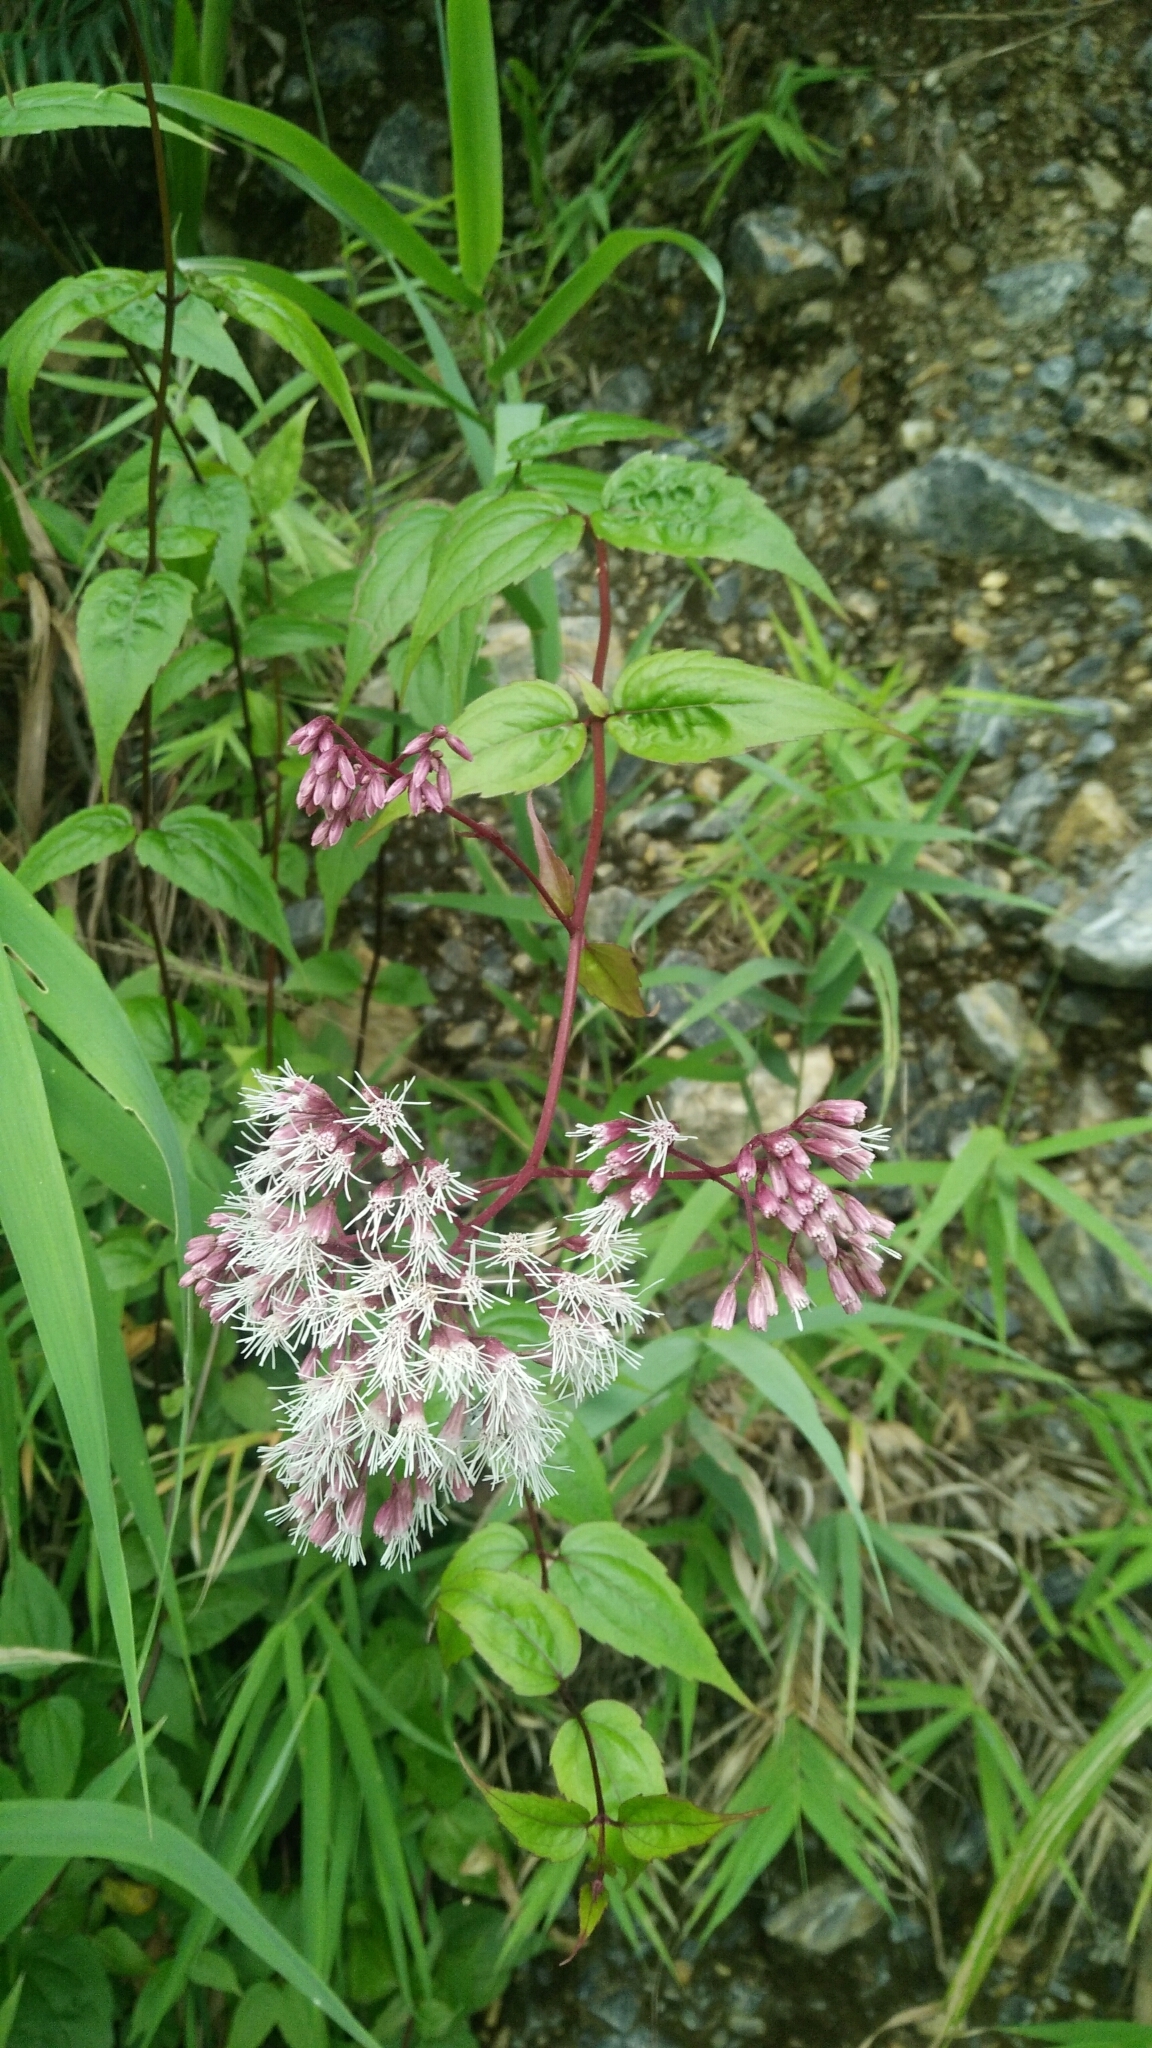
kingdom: Plantae
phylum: Tracheophyta
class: Magnoliopsida
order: Asterales
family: Asteraceae
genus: Eupatorium
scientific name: Eupatorium amabile
